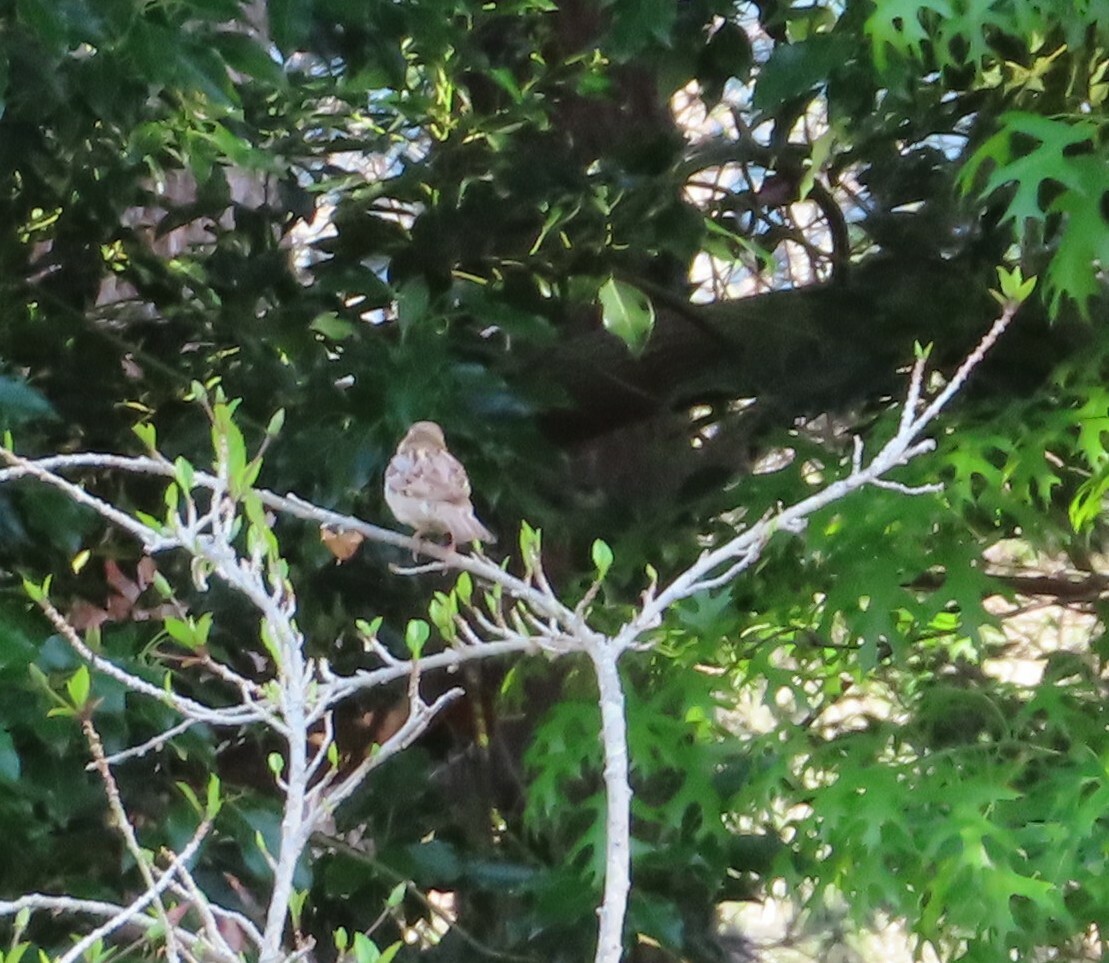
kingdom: Animalia
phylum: Chordata
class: Aves
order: Passeriformes
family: Passeridae
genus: Passer
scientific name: Passer domesticus
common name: House sparrow
